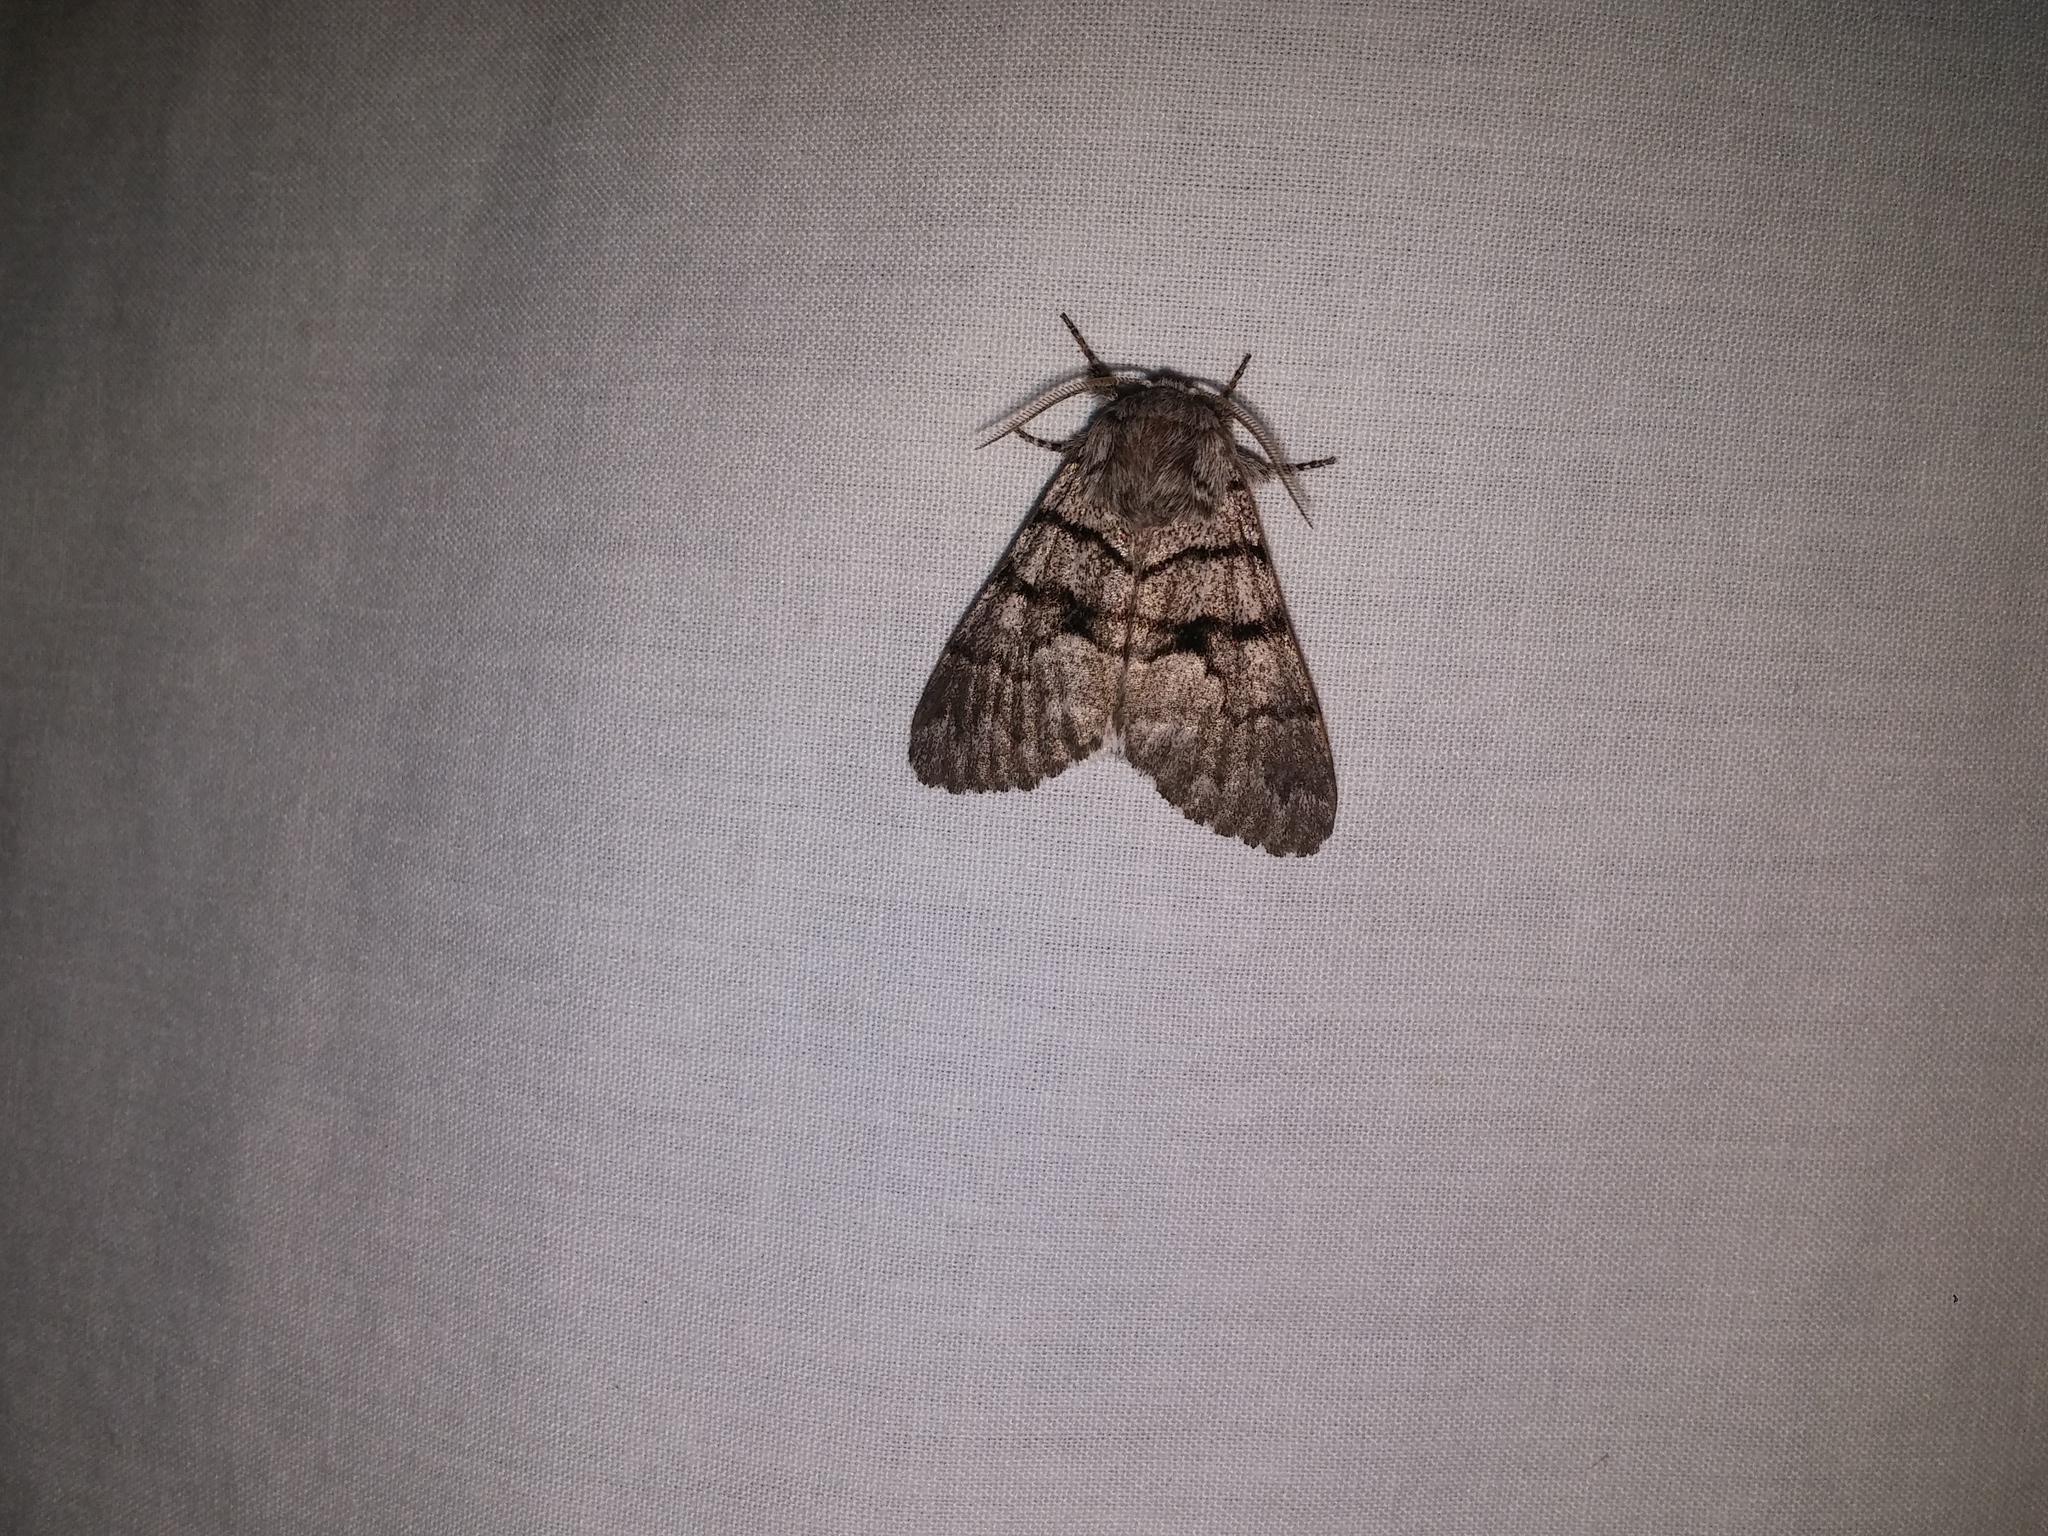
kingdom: Animalia
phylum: Arthropoda
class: Insecta
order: Lepidoptera
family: Noctuidae
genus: Panthea
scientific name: Panthea furcilla
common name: Eastern panthea moth
